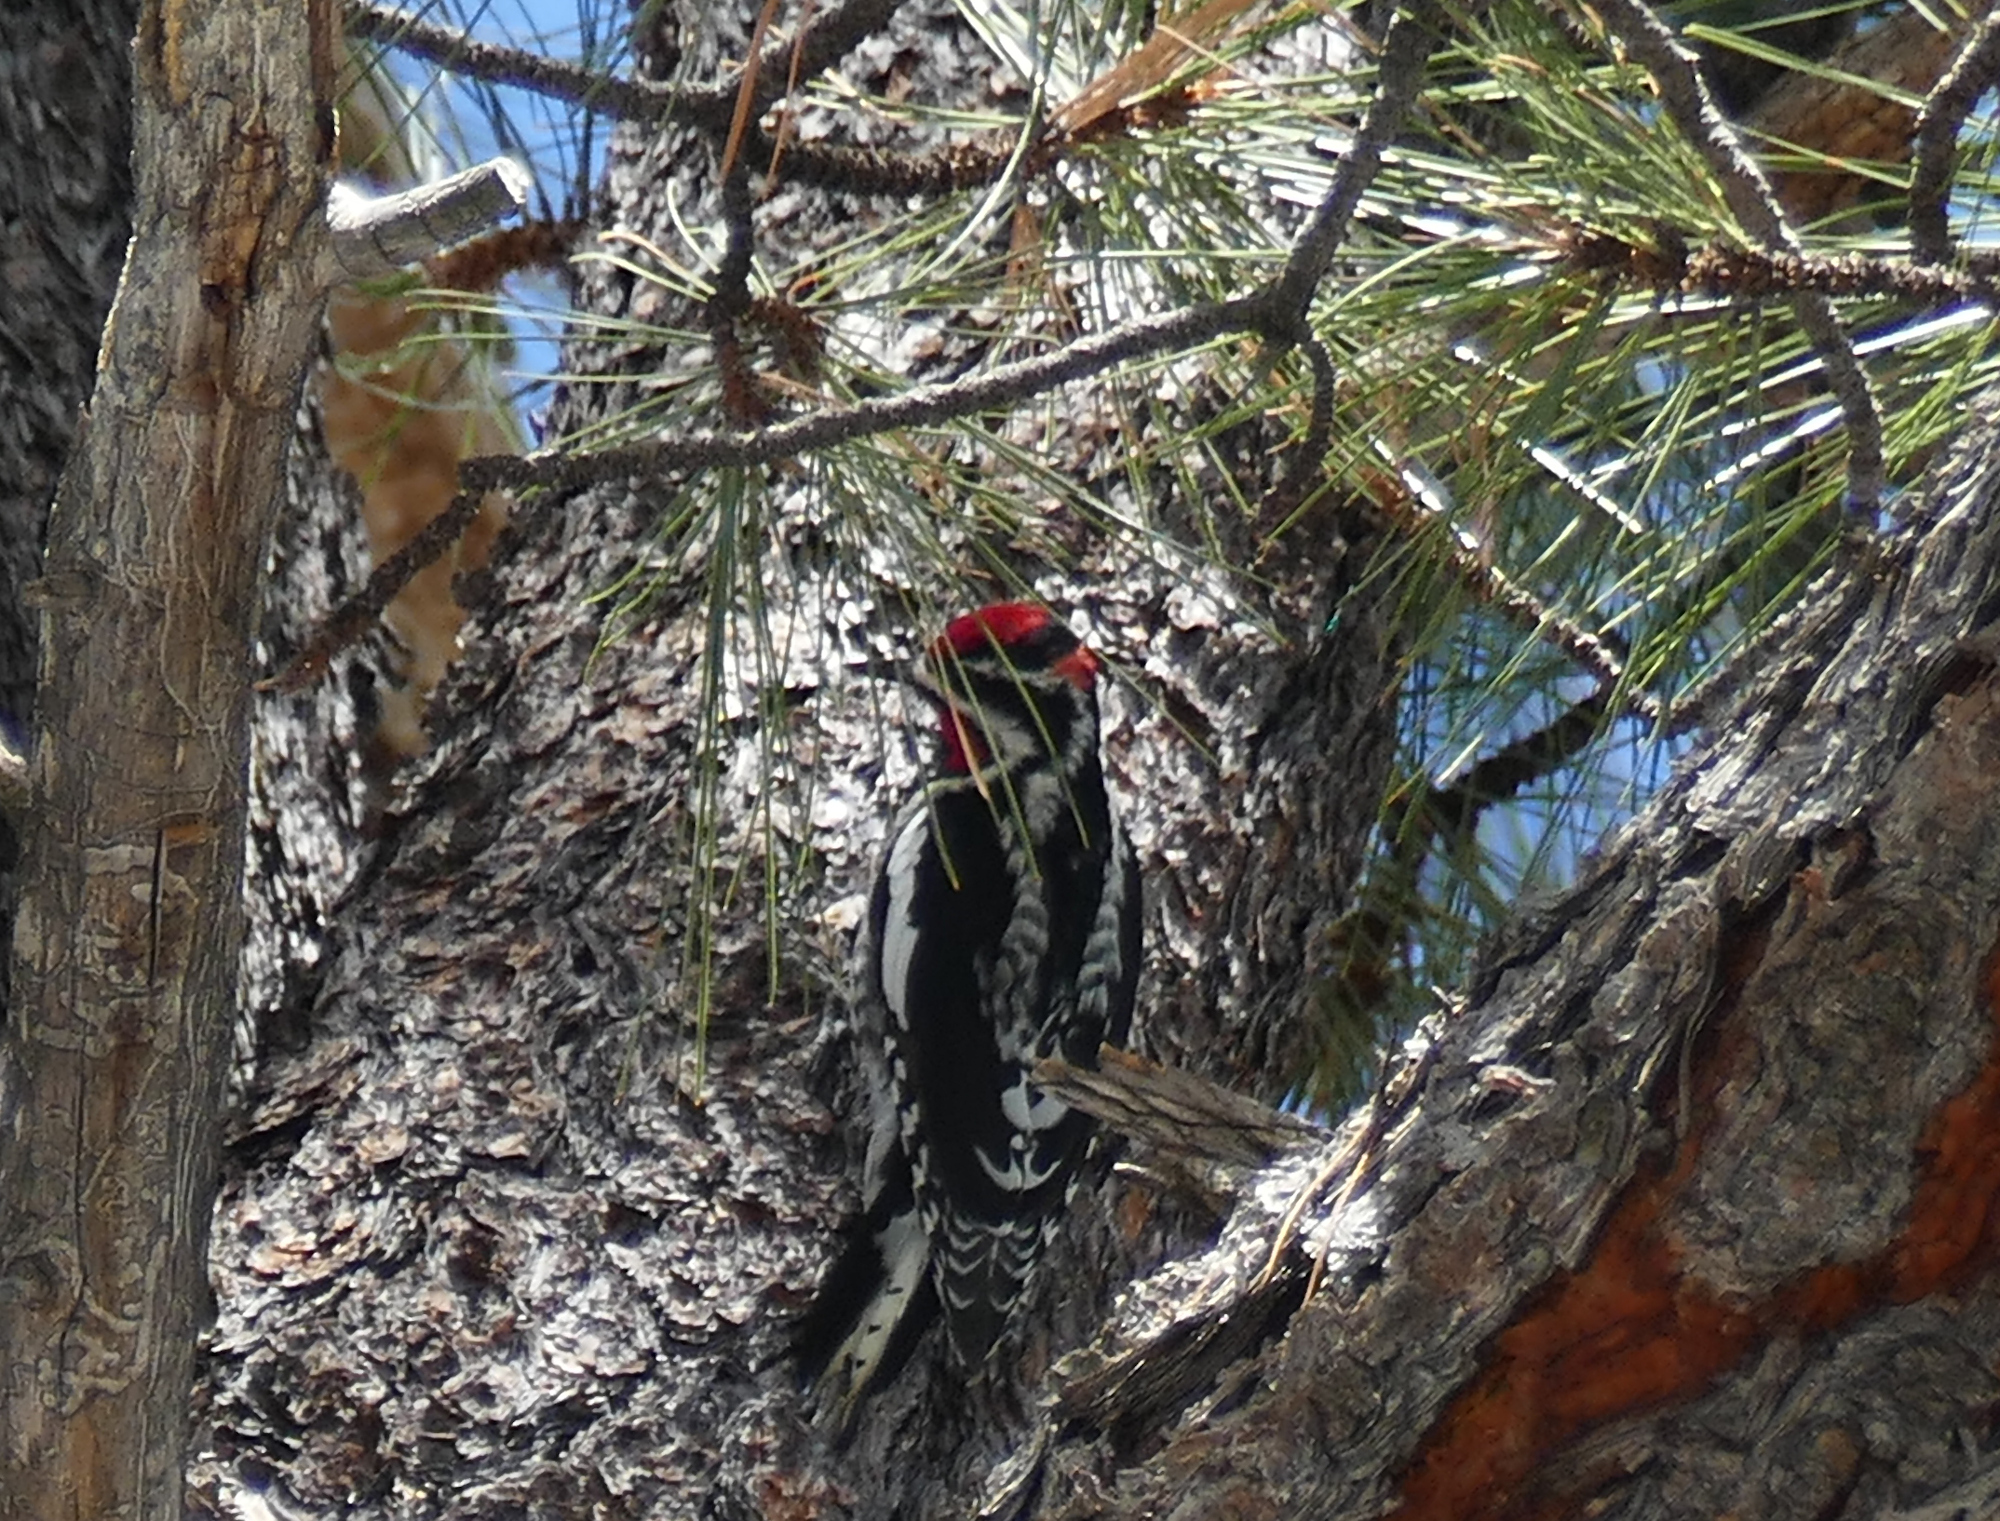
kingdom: Animalia
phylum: Chordata
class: Aves
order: Piciformes
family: Picidae
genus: Sphyrapicus
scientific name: Sphyrapicus nuchalis
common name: Red-naped sapsucker
